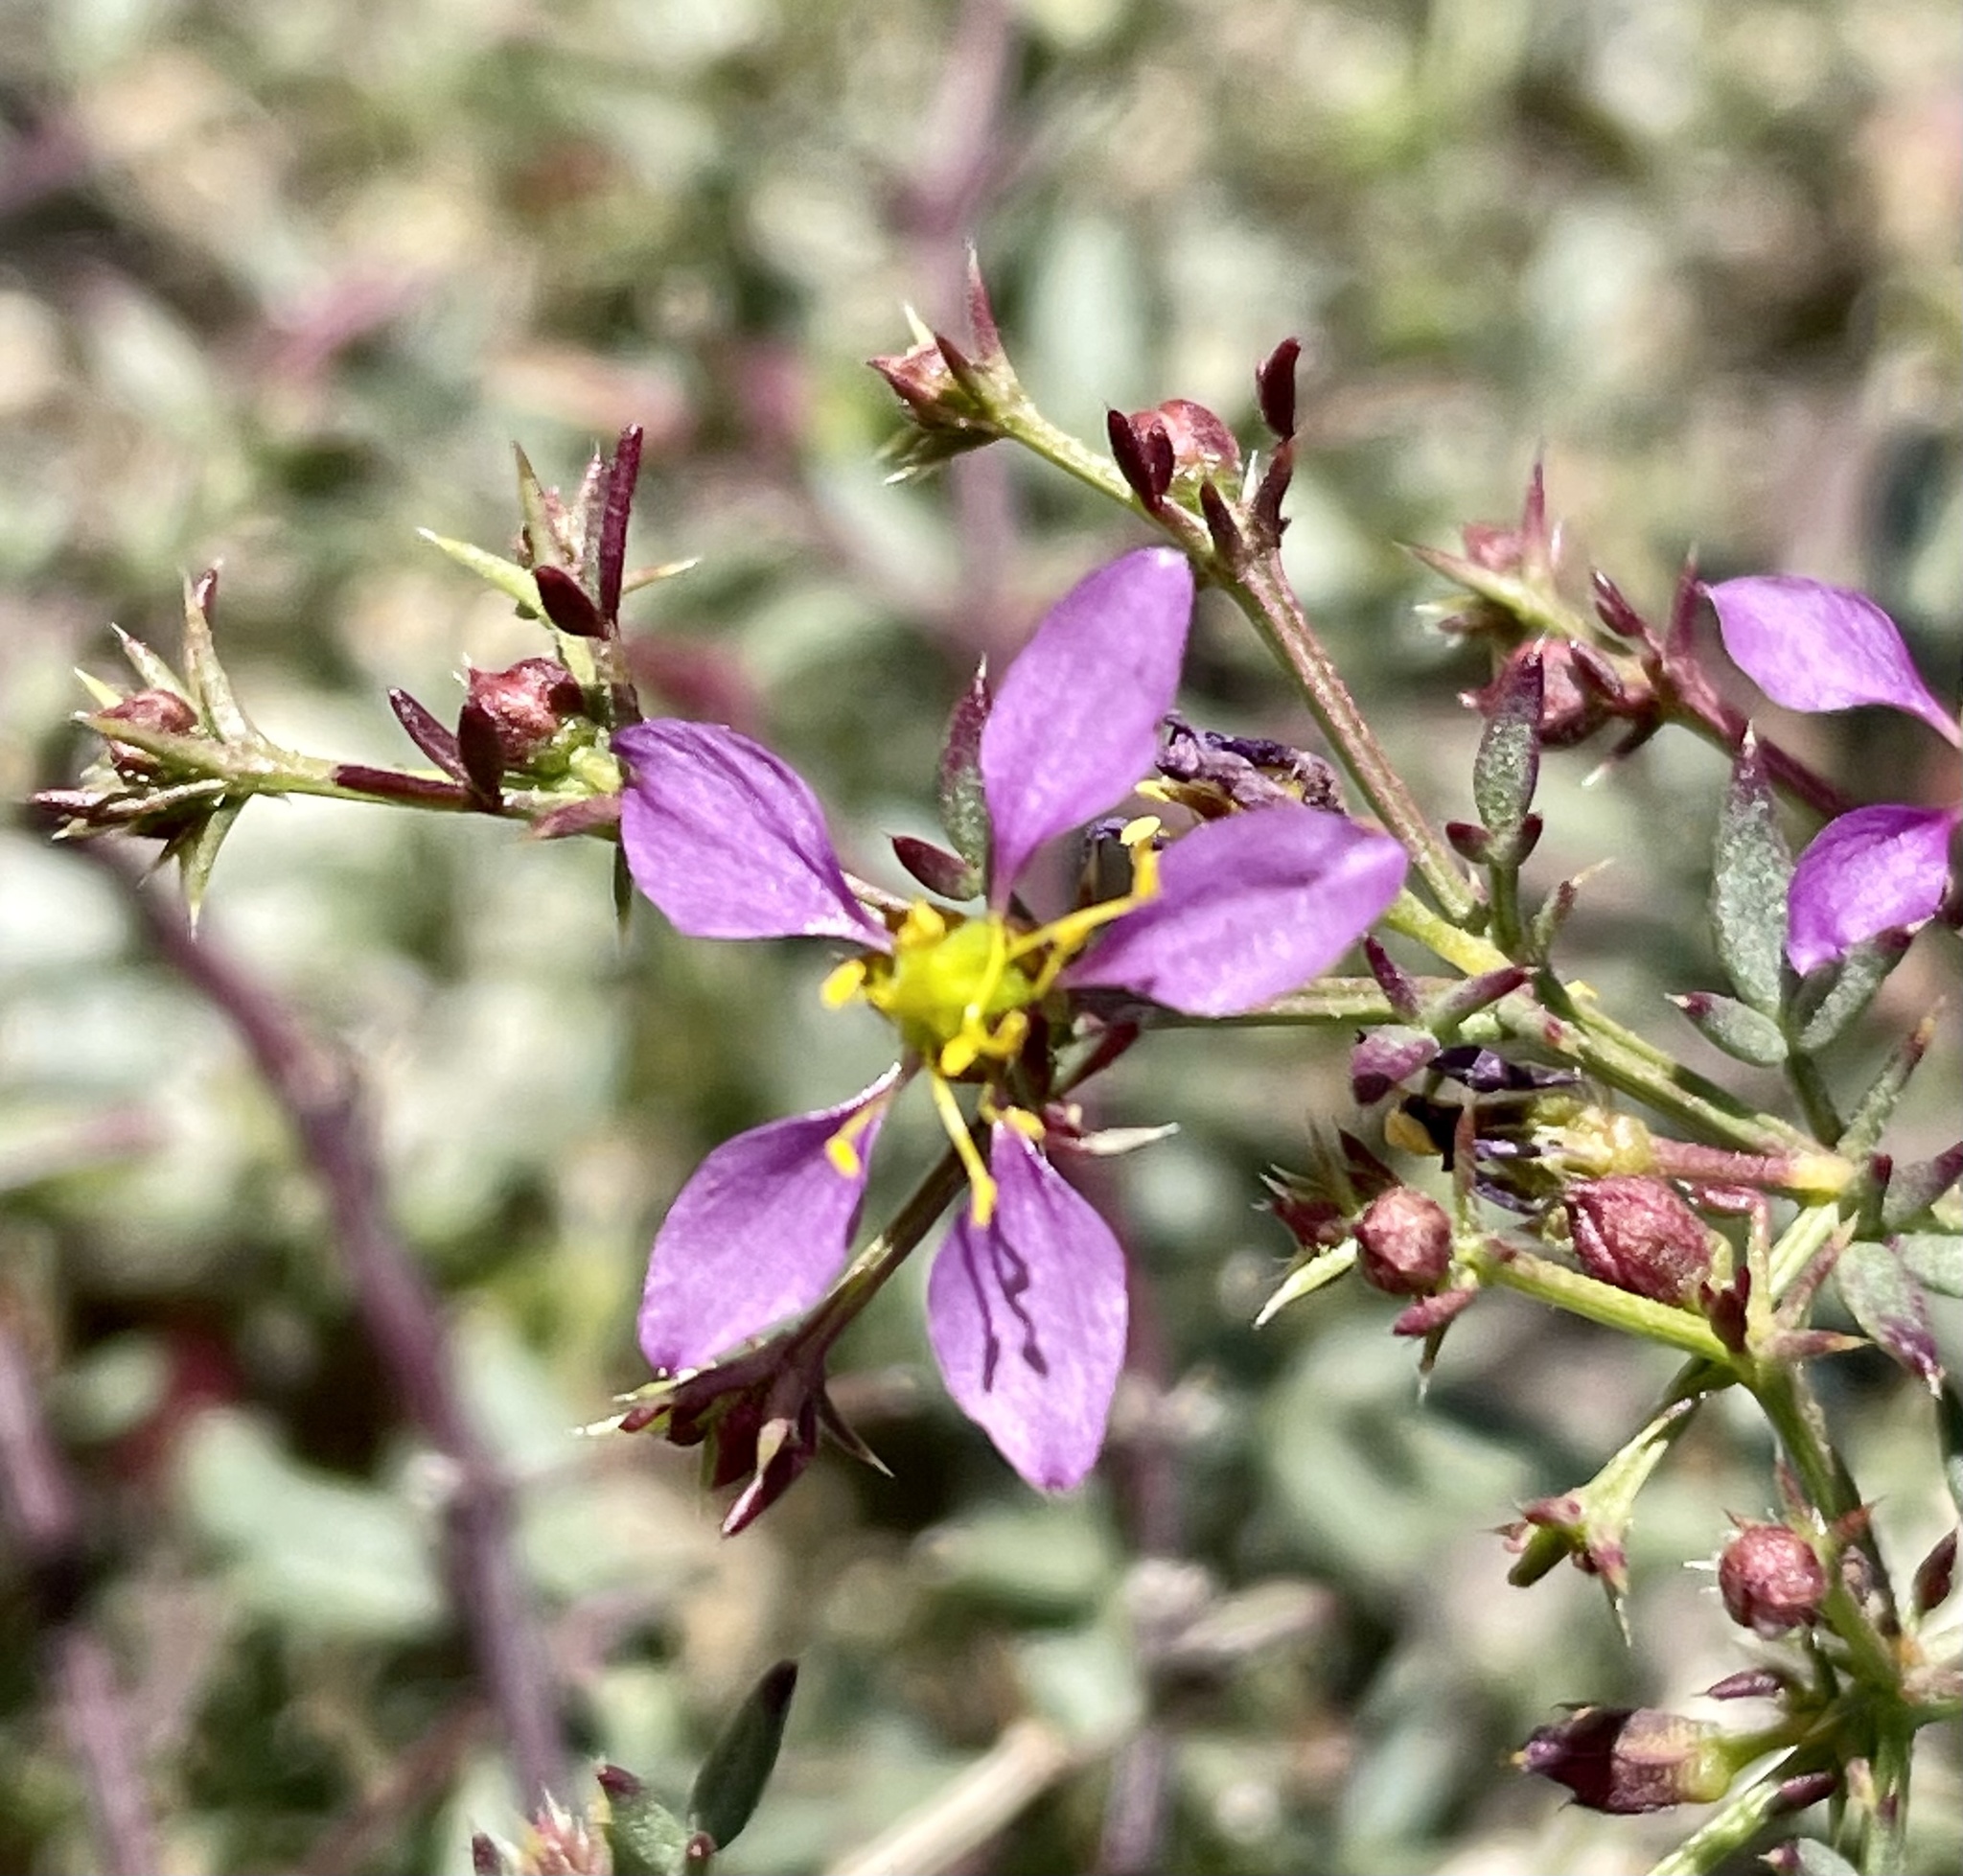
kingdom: Plantae
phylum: Tracheophyta
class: Magnoliopsida
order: Zygophyllales
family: Zygophyllaceae
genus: Fagonia
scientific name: Fagonia laevis
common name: California fagonbush
